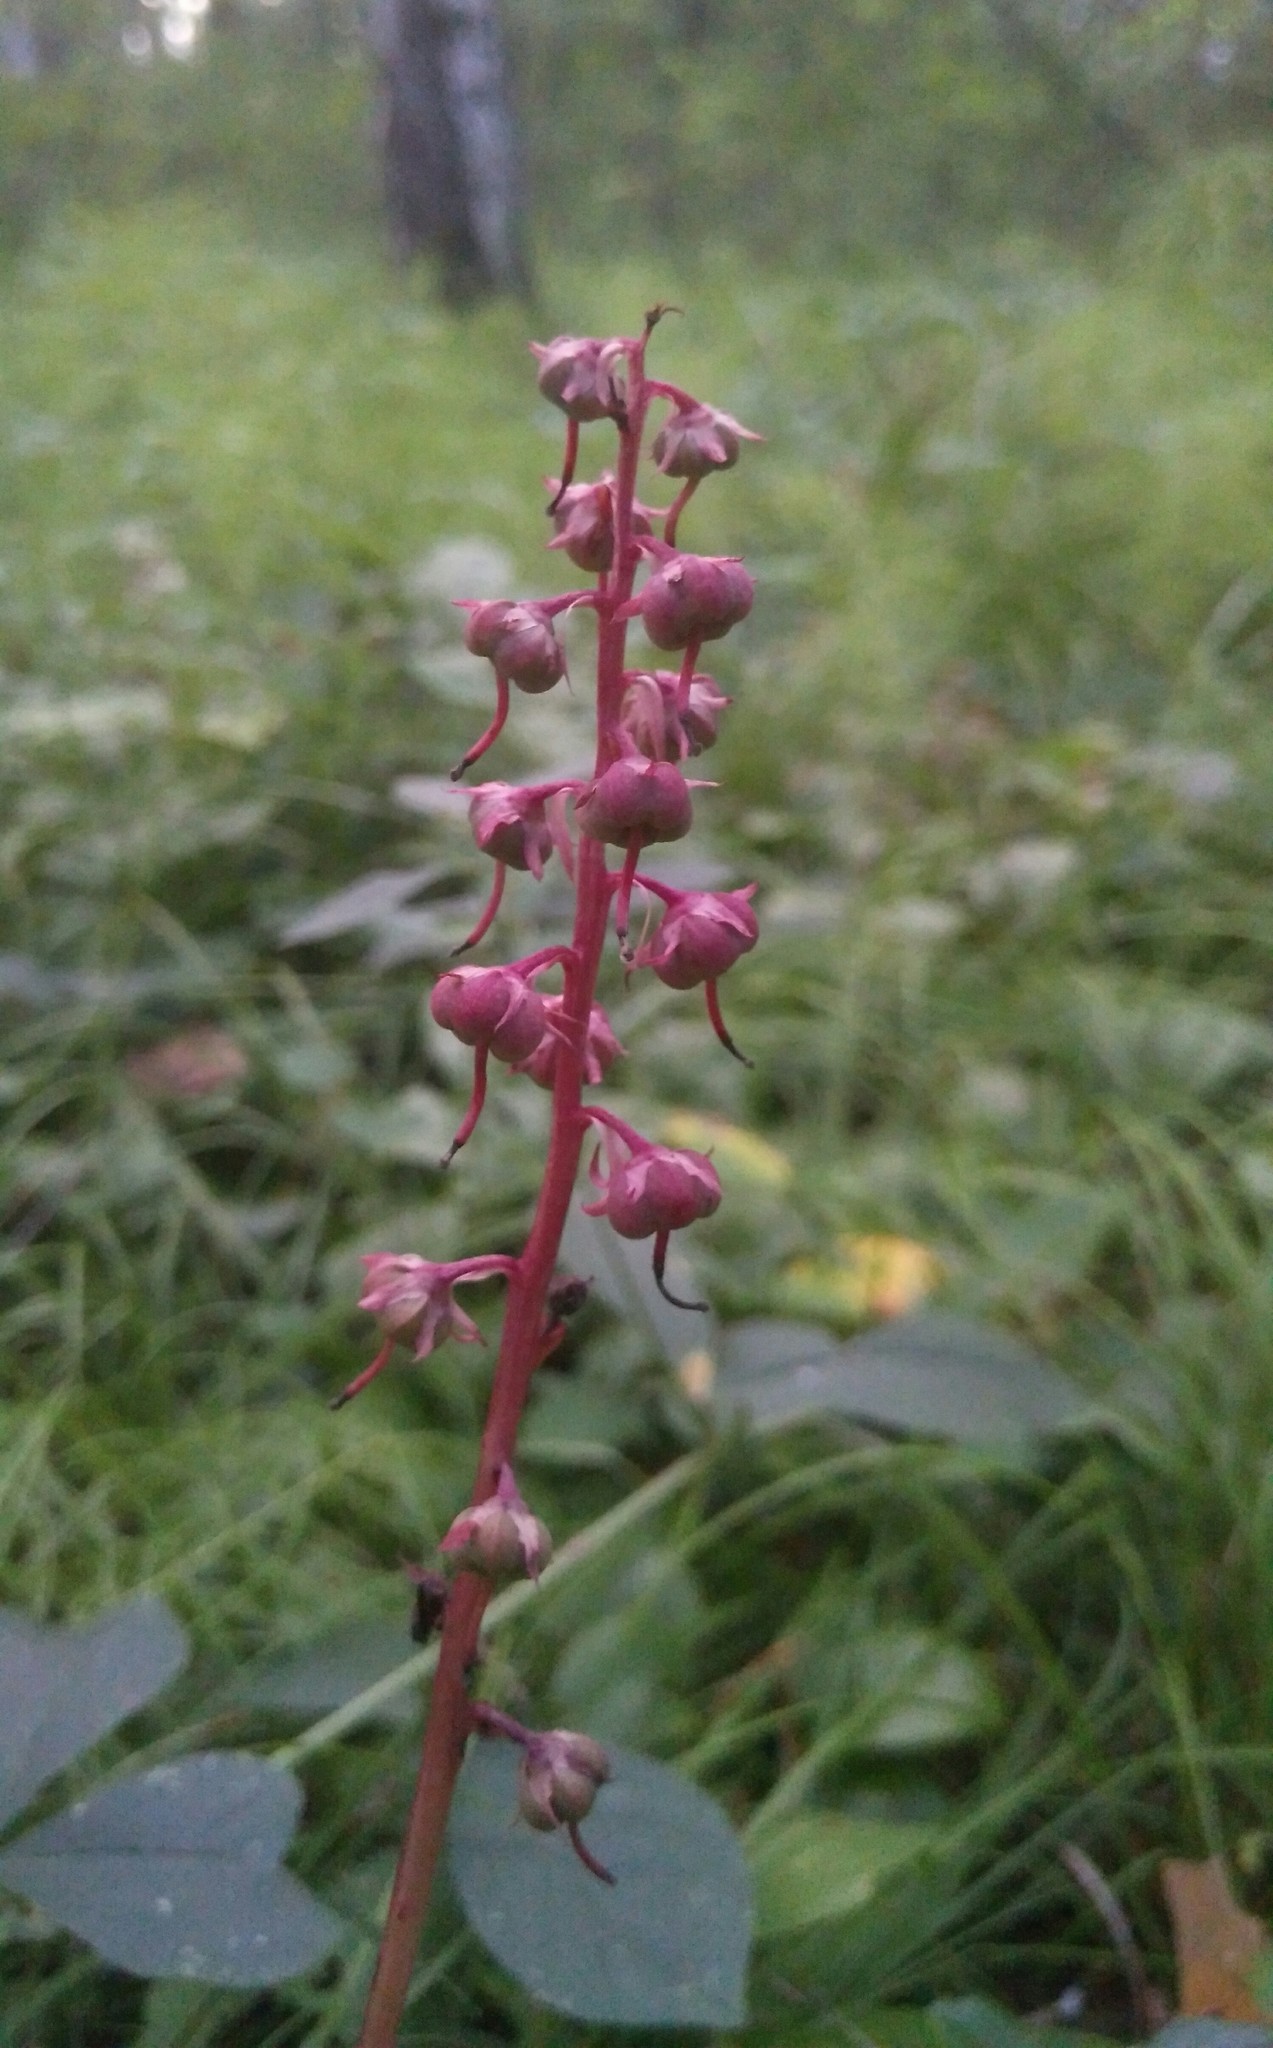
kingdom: Plantae
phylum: Tracheophyta
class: Magnoliopsida
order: Ericales
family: Ericaceae
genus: Pyrola
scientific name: Pyrola asarifolia
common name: Bog wintergreen
